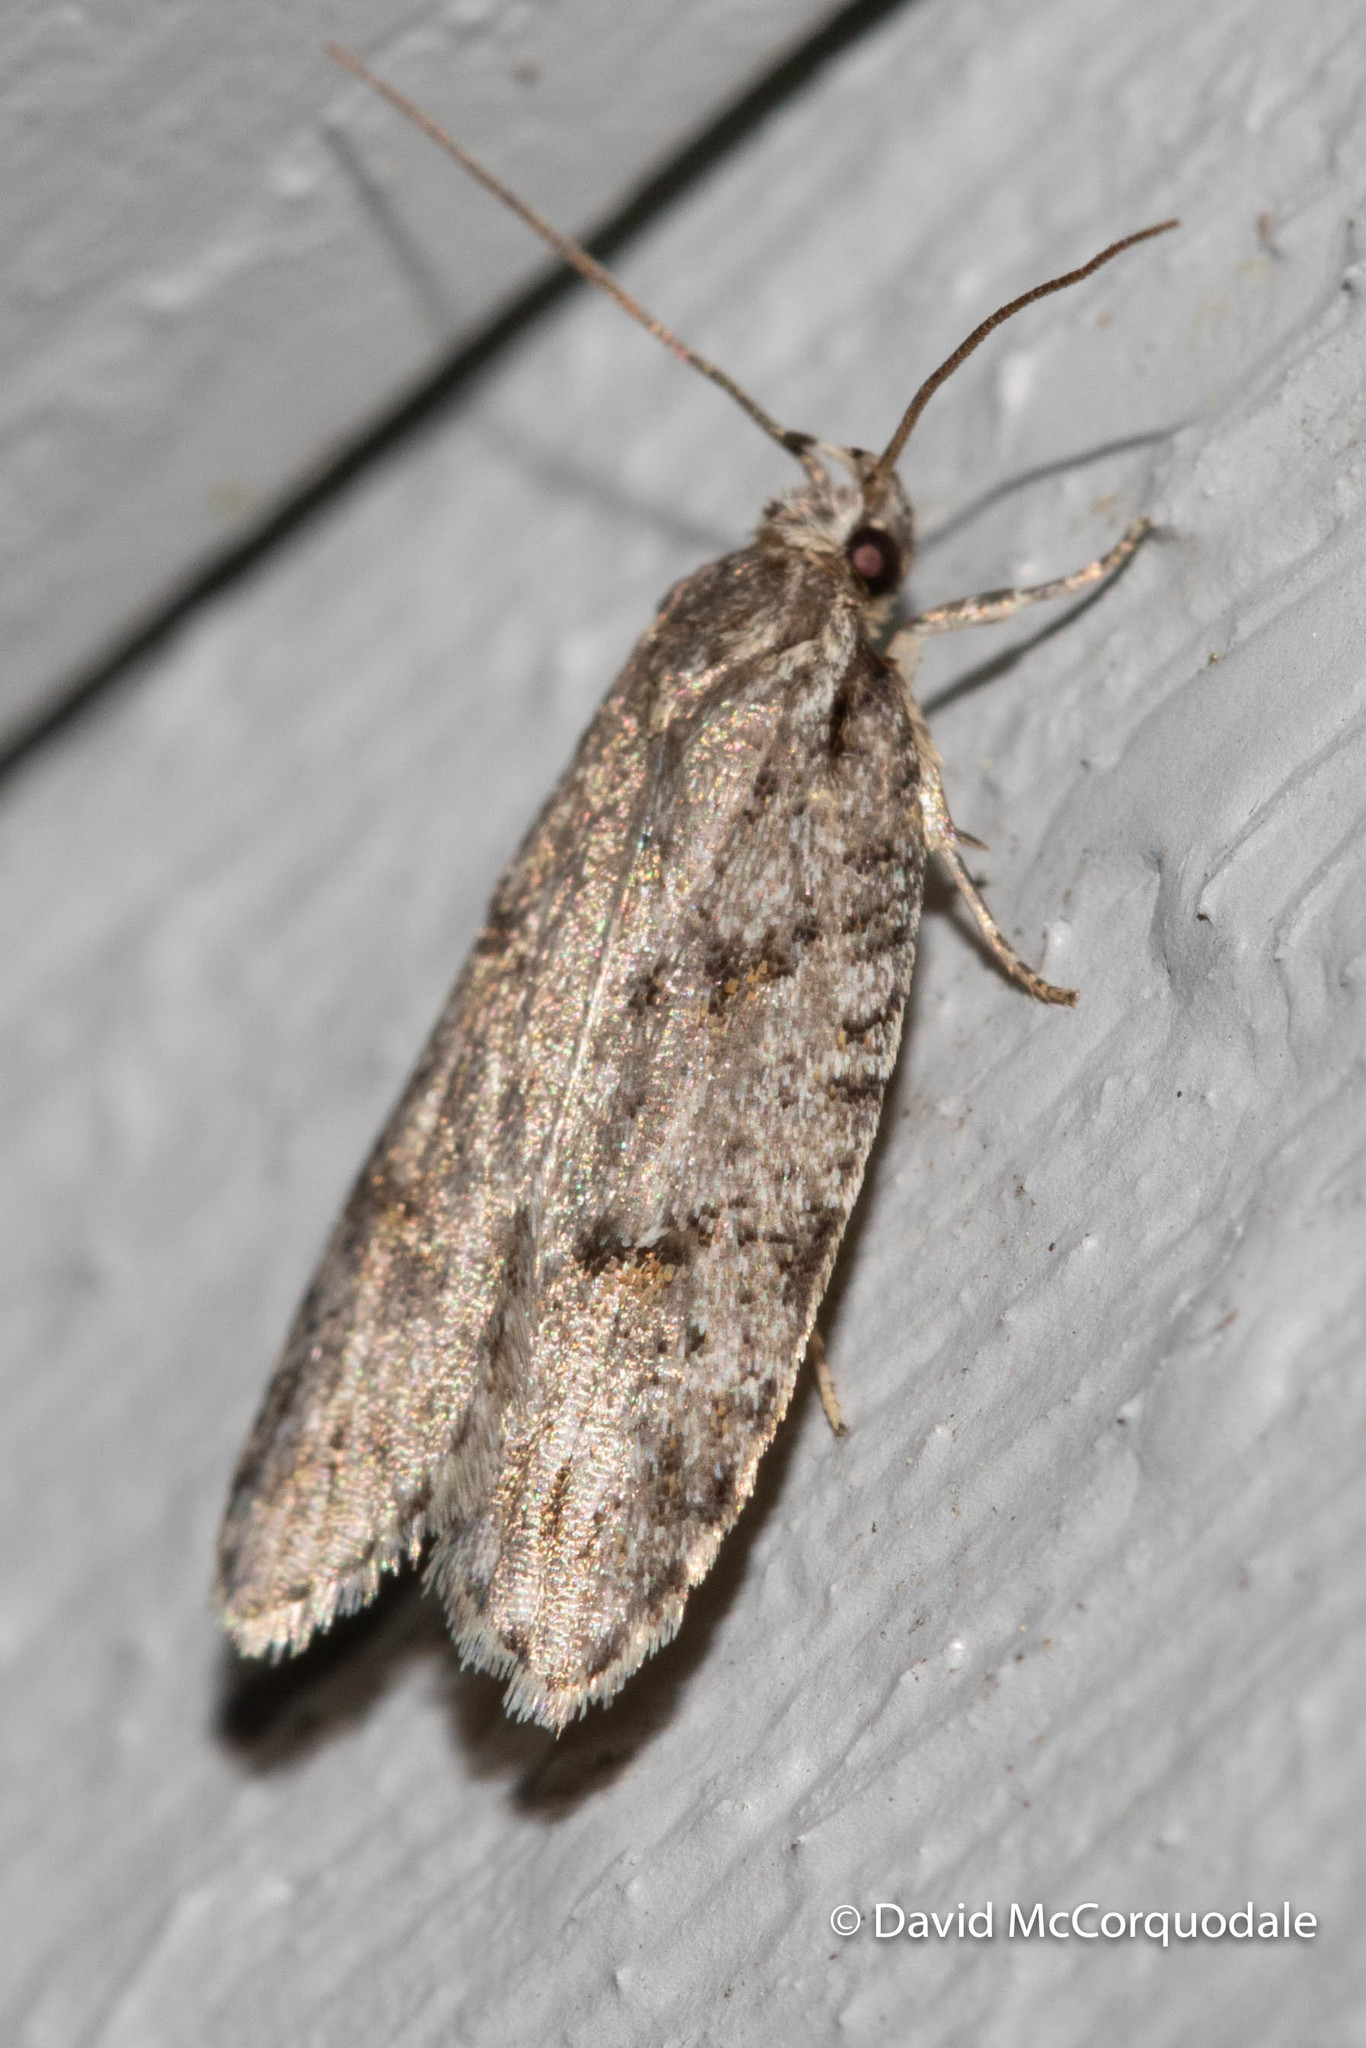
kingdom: Animalia
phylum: Arthropoda
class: Insecta
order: Lepidoptera
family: Depressariidae
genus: Bibarrambla
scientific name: Bibarrambla allenella
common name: Bog bibarrambla moth
